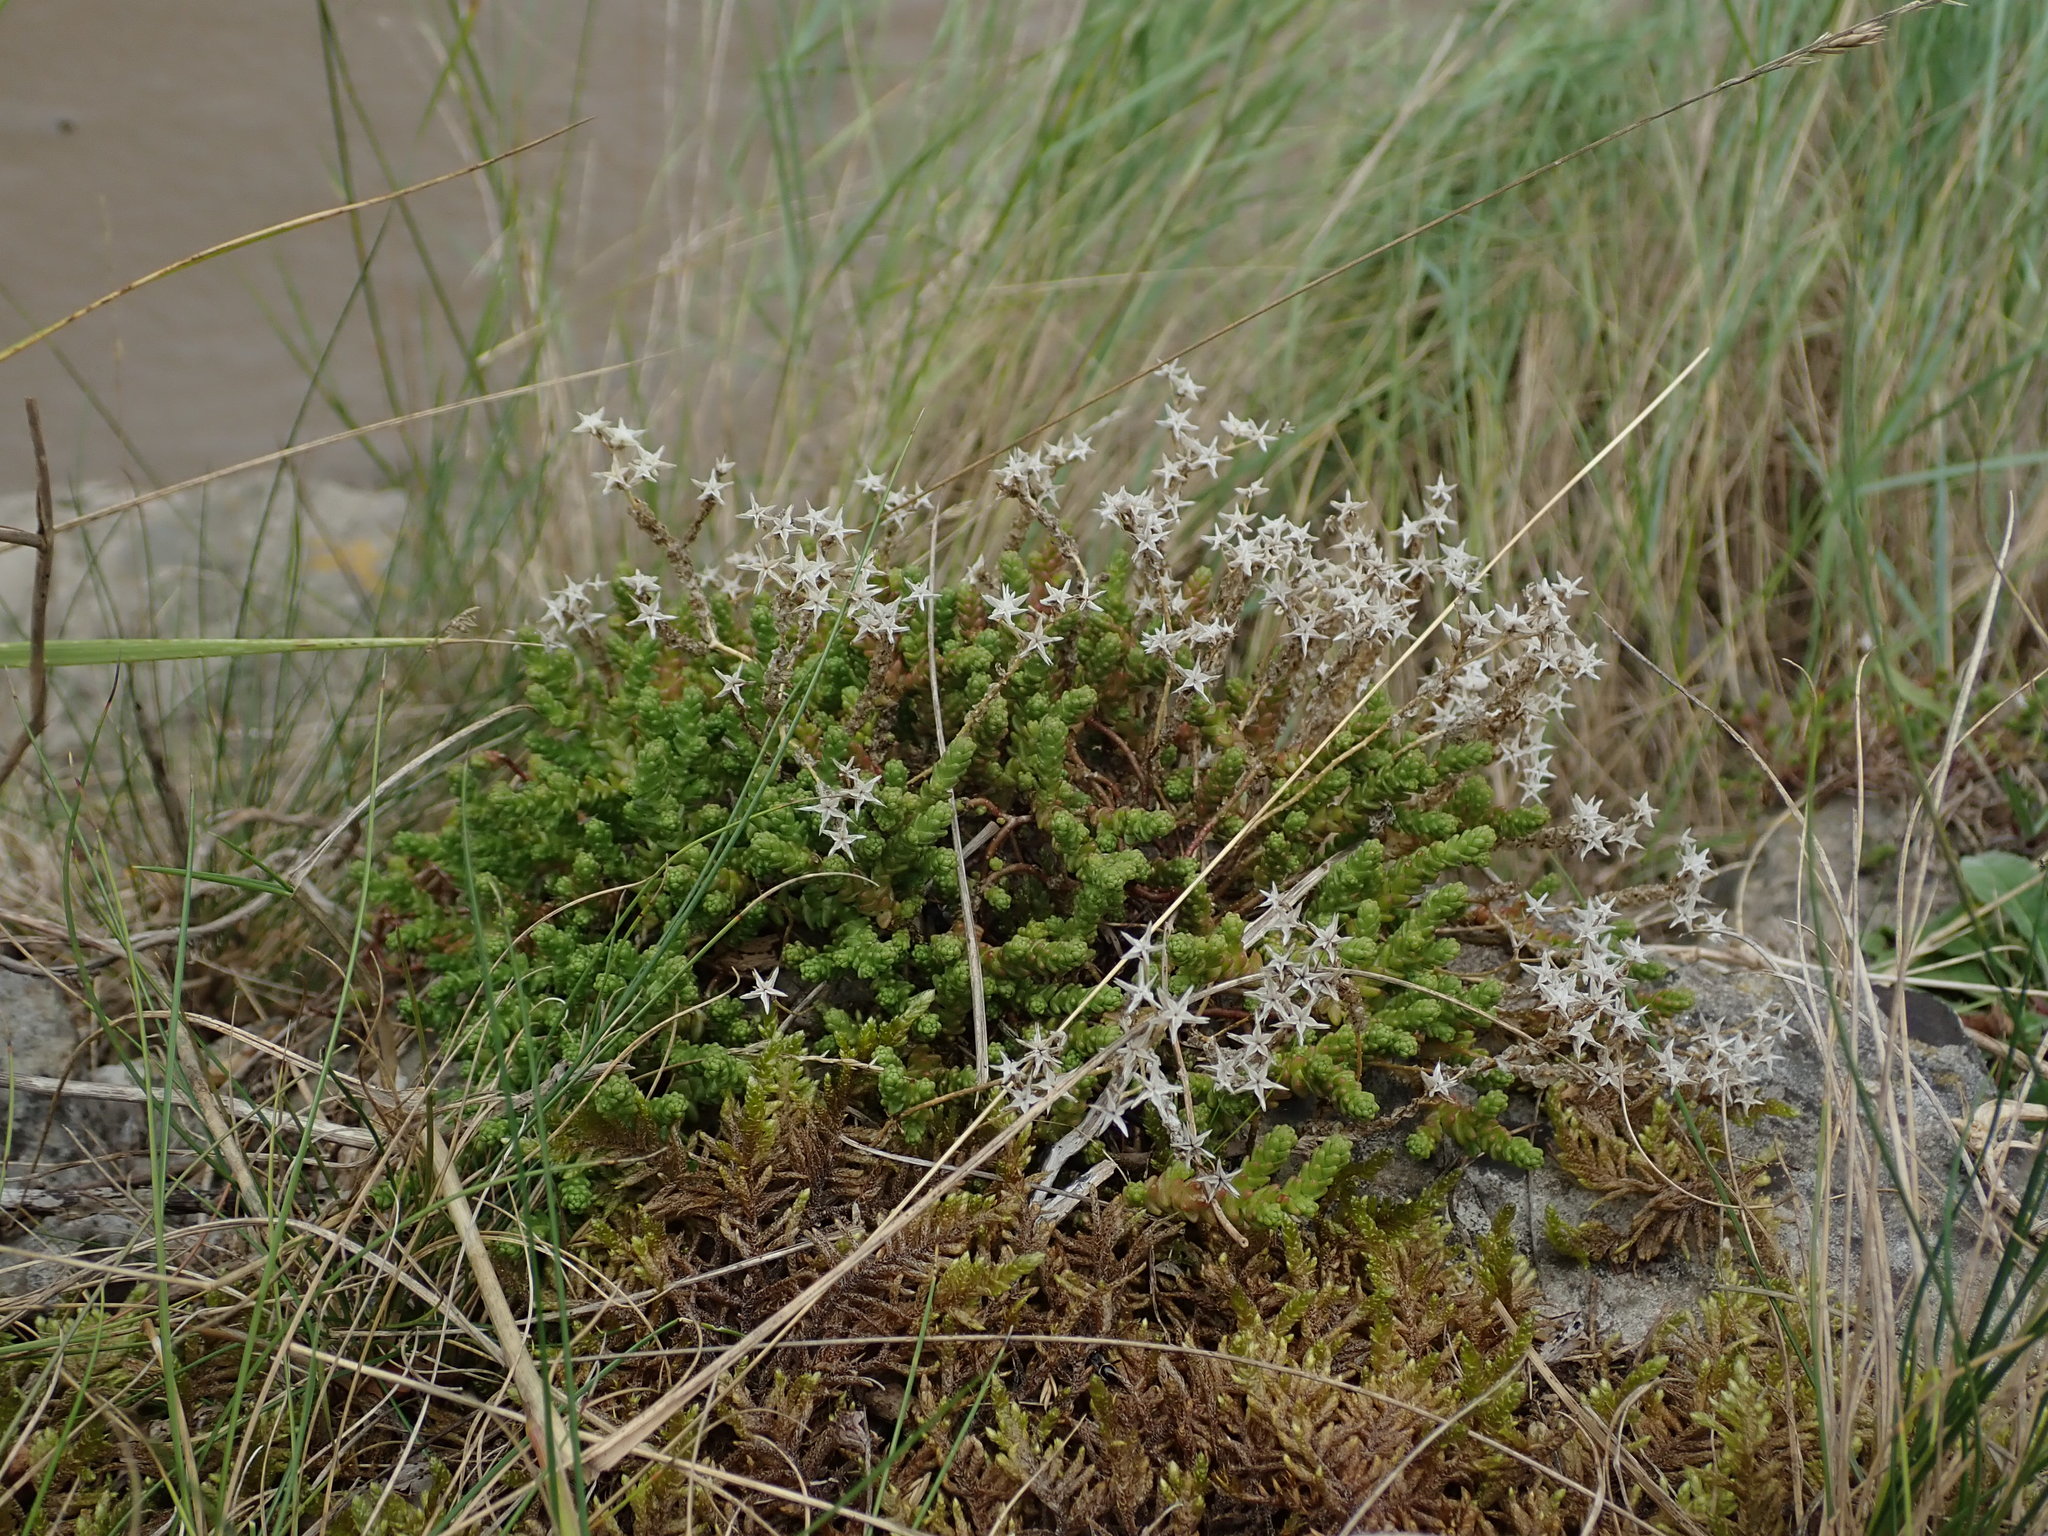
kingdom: Plantae
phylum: Tracheophyta
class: Magnoliopsida
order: Saxifragales
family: Crassulaceae
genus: Sedum
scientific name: Sedum acre
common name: Biting stonecrop
